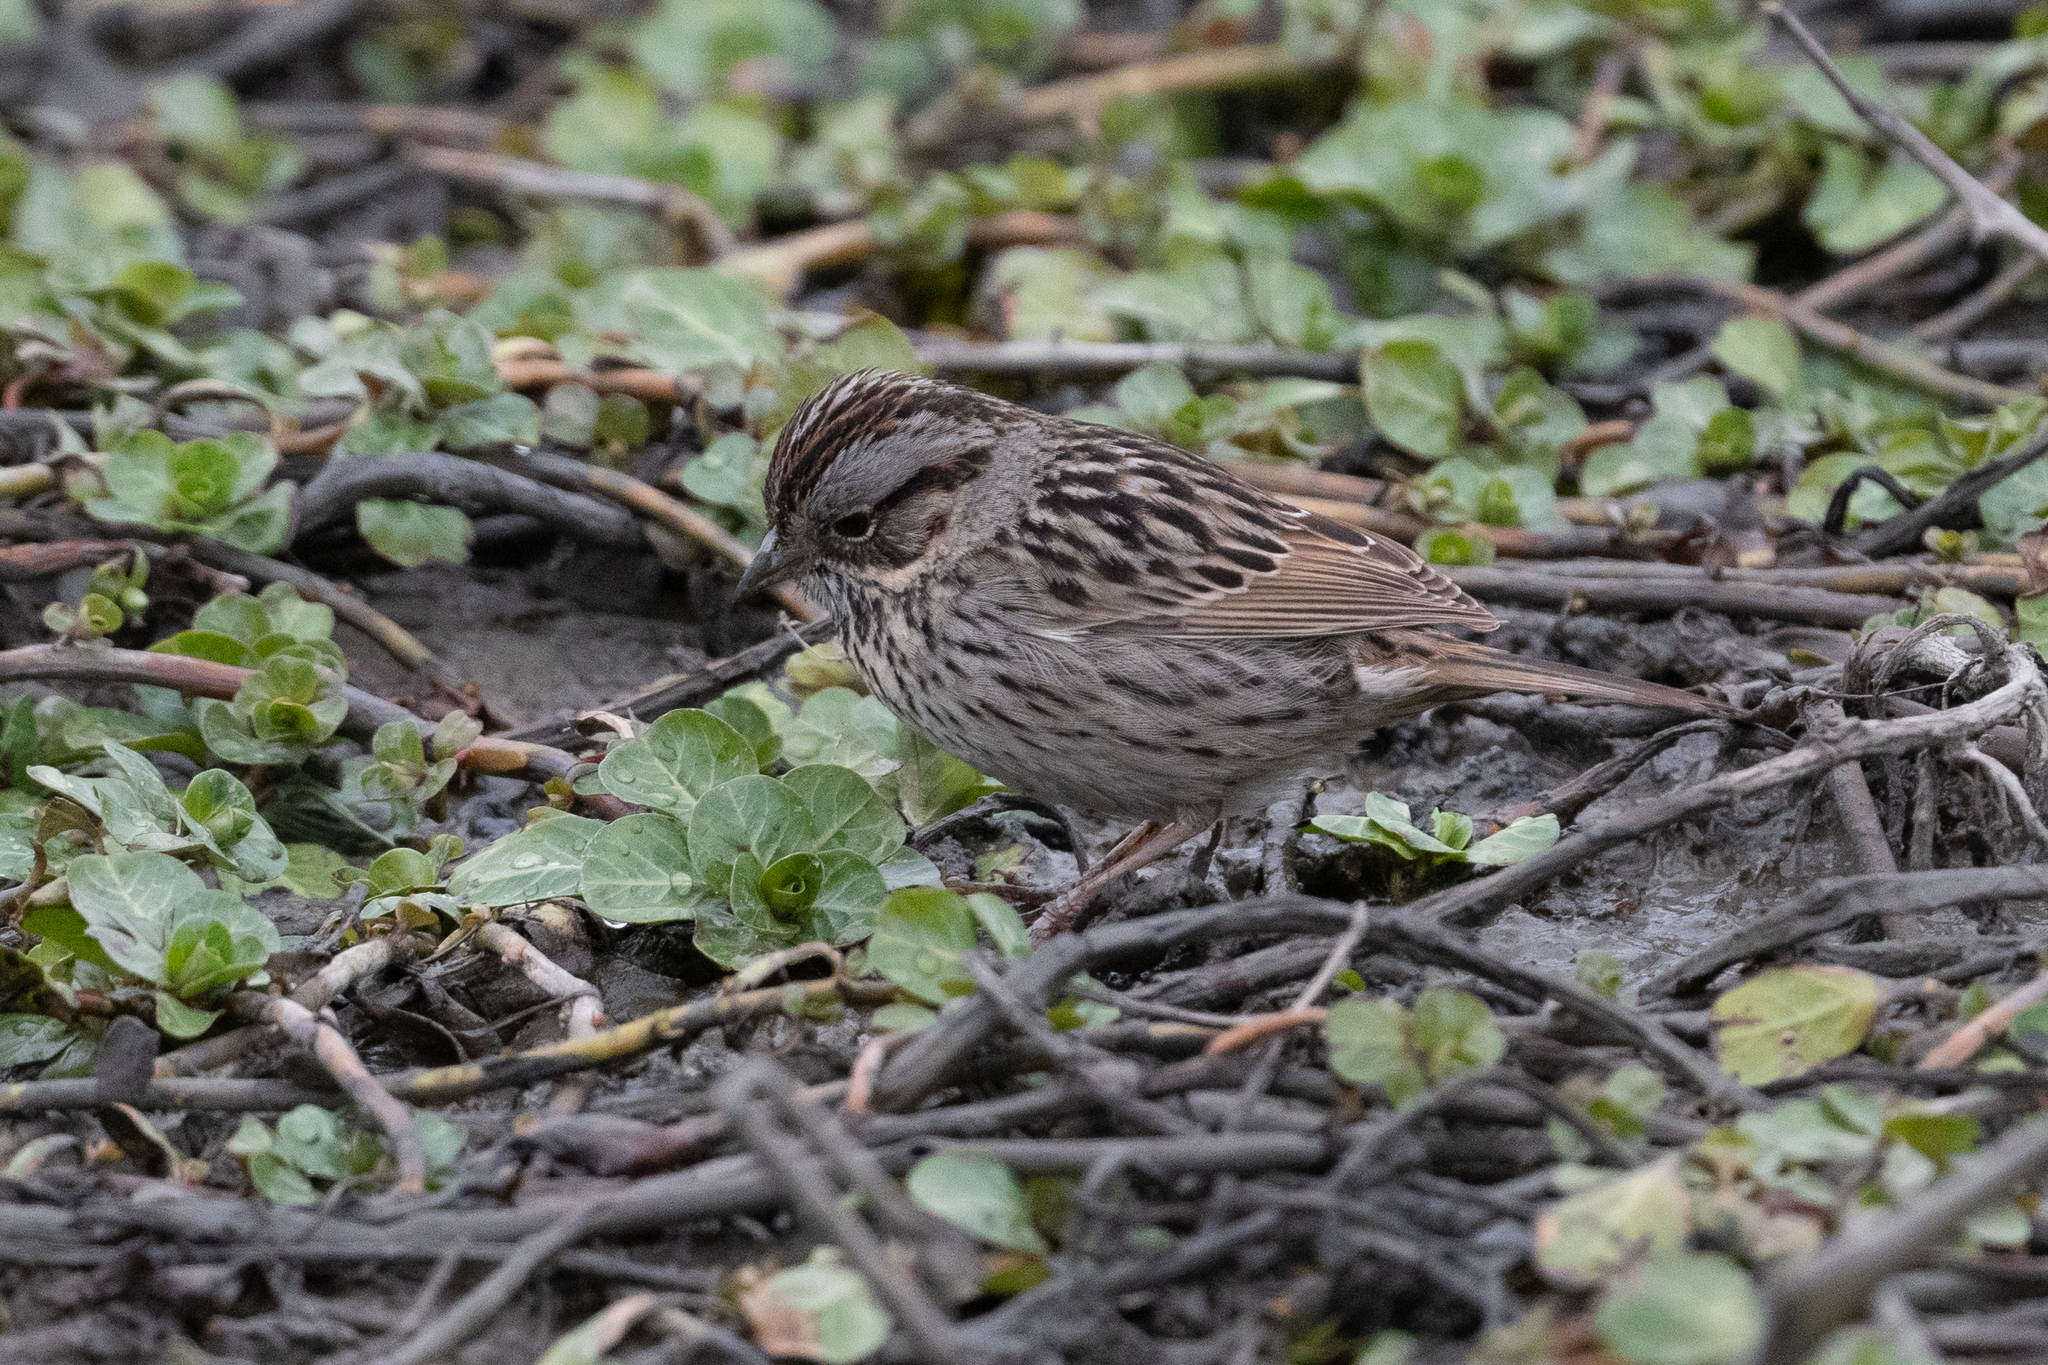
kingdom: Animalia
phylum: Chordata
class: Aves
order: Passeriformes
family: Passerellidae
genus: Melospiza
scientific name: Melospiza lincolnii
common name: Lincoln's sparrow
